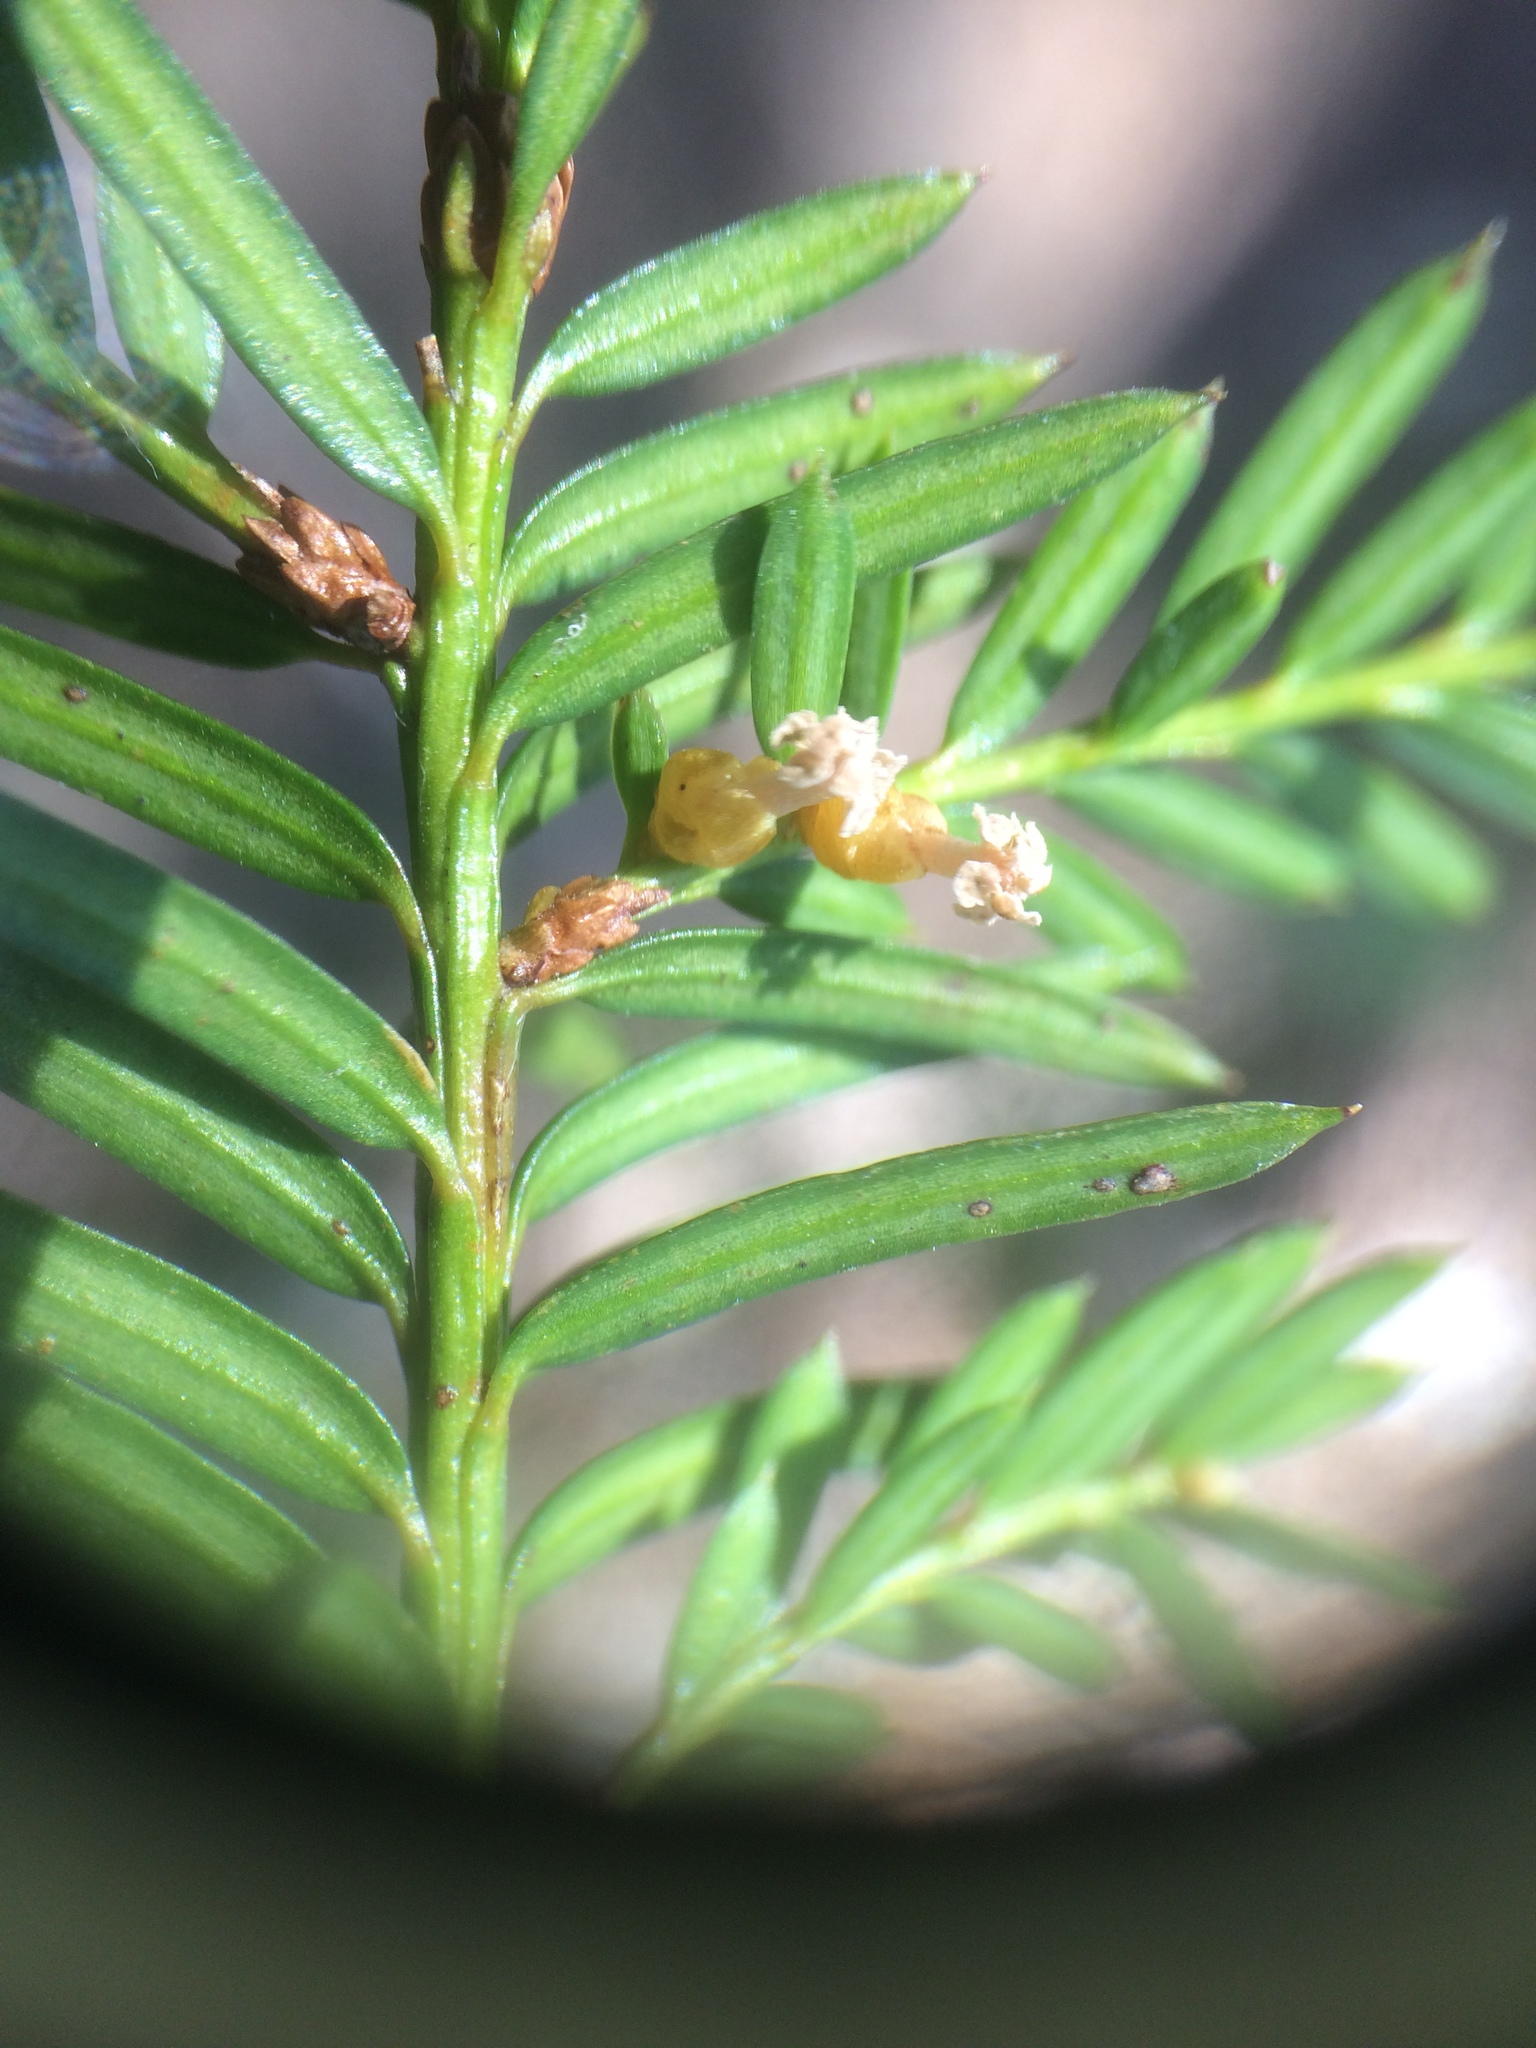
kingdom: Plantae
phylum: Tracheophyta
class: Pinopsida
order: Pinales
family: Taxaceae
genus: Taxus
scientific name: Taxus canadensis
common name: American yew
